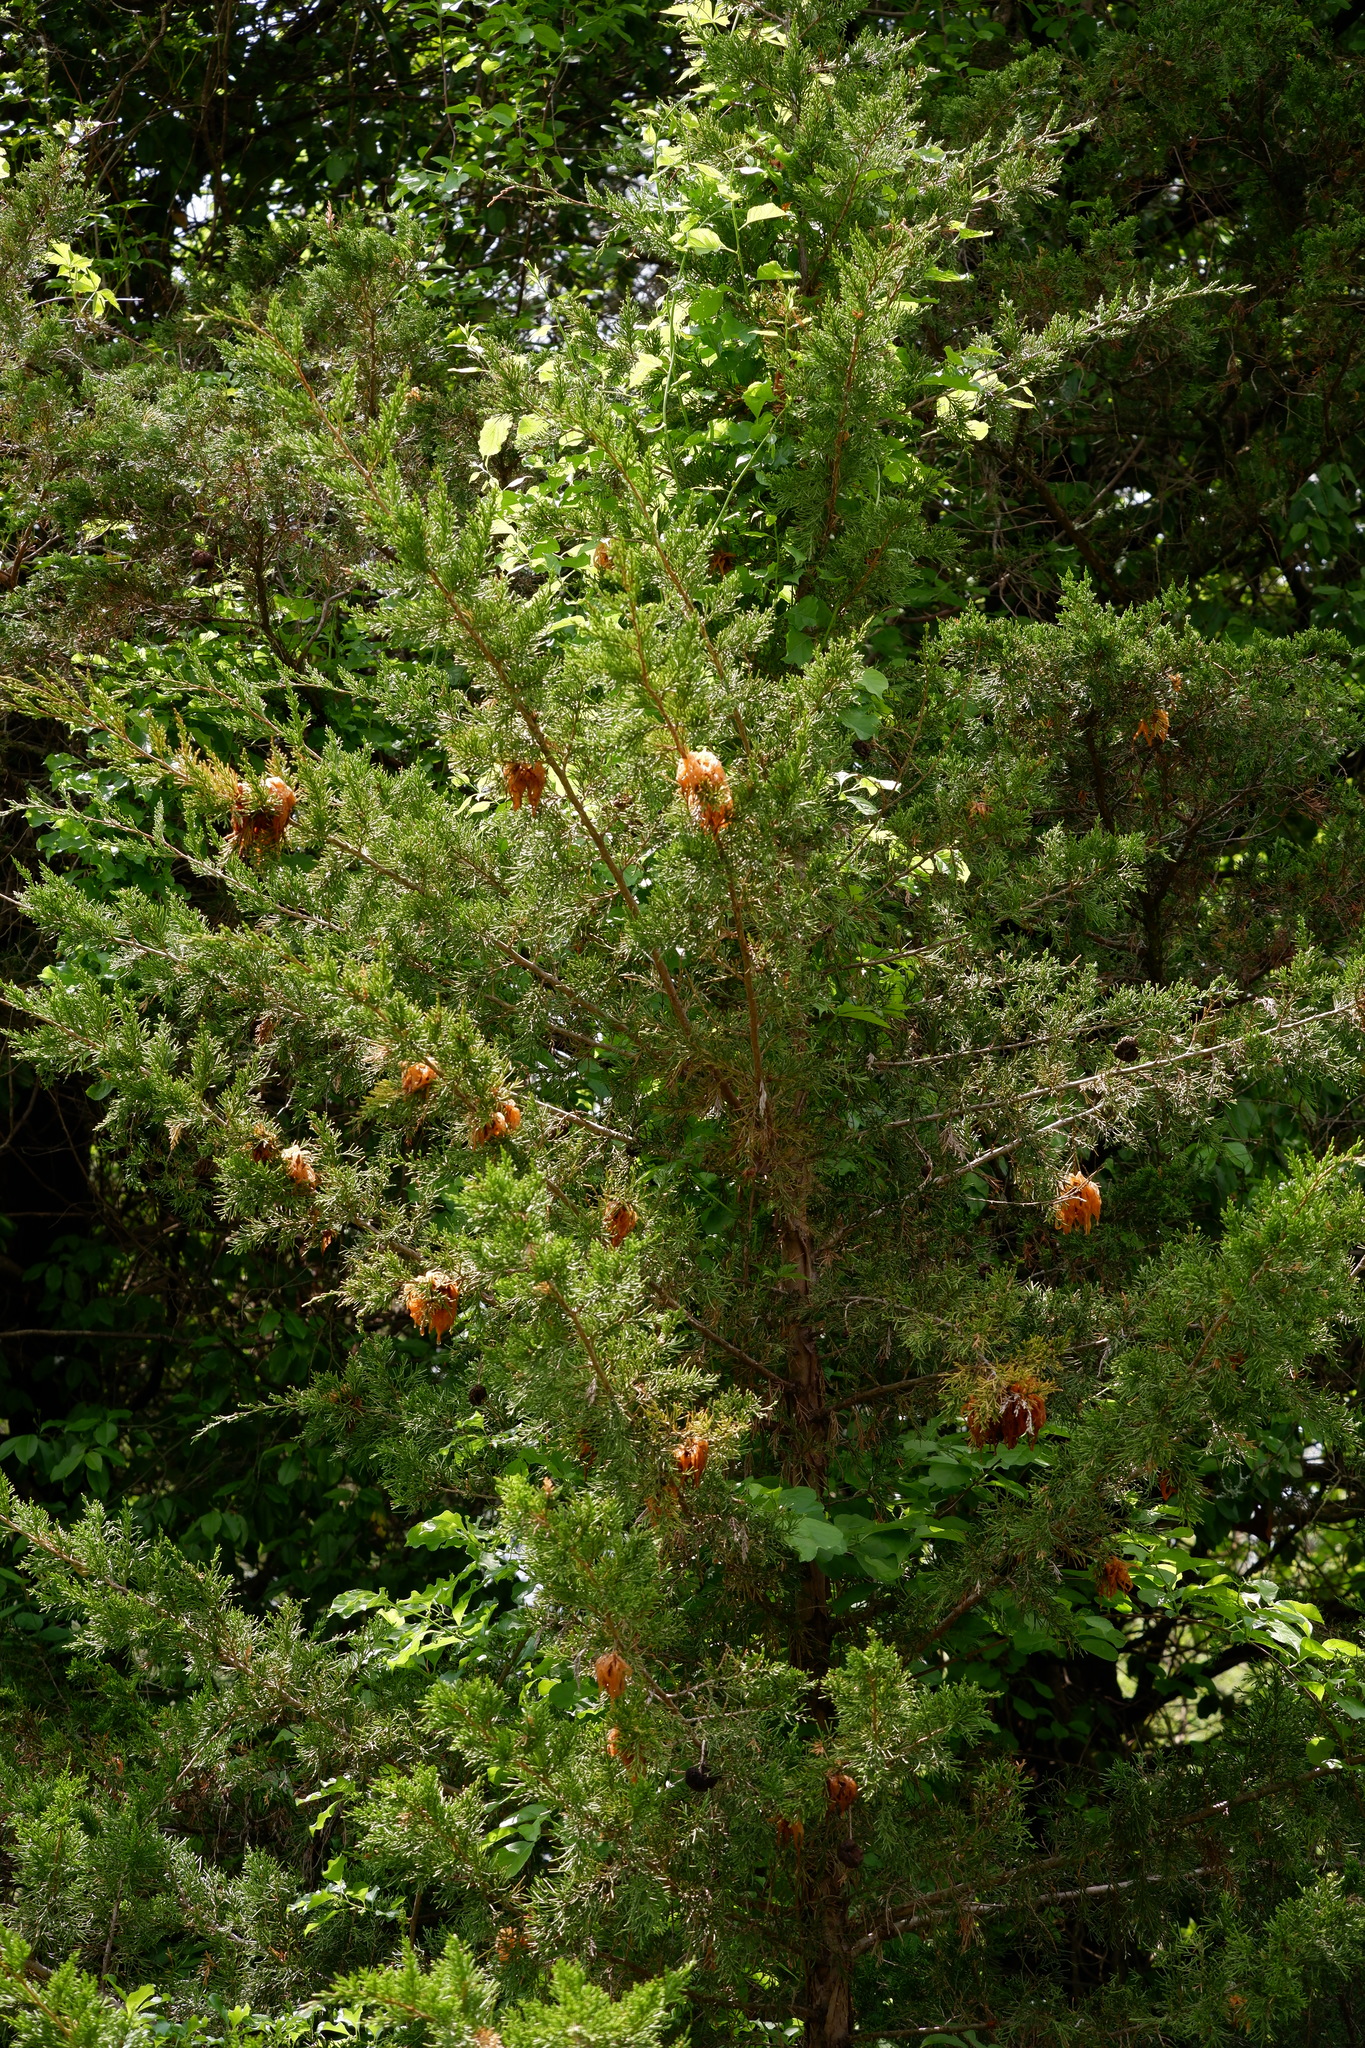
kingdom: Fungi
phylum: Basidiomycota
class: Pucciniomycetes
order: Pucciniales
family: Gymnosporangiaceae
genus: Gymnosporangium
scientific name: Gymnosporangium juniperi-virginianae
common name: Juniper-apple rust
